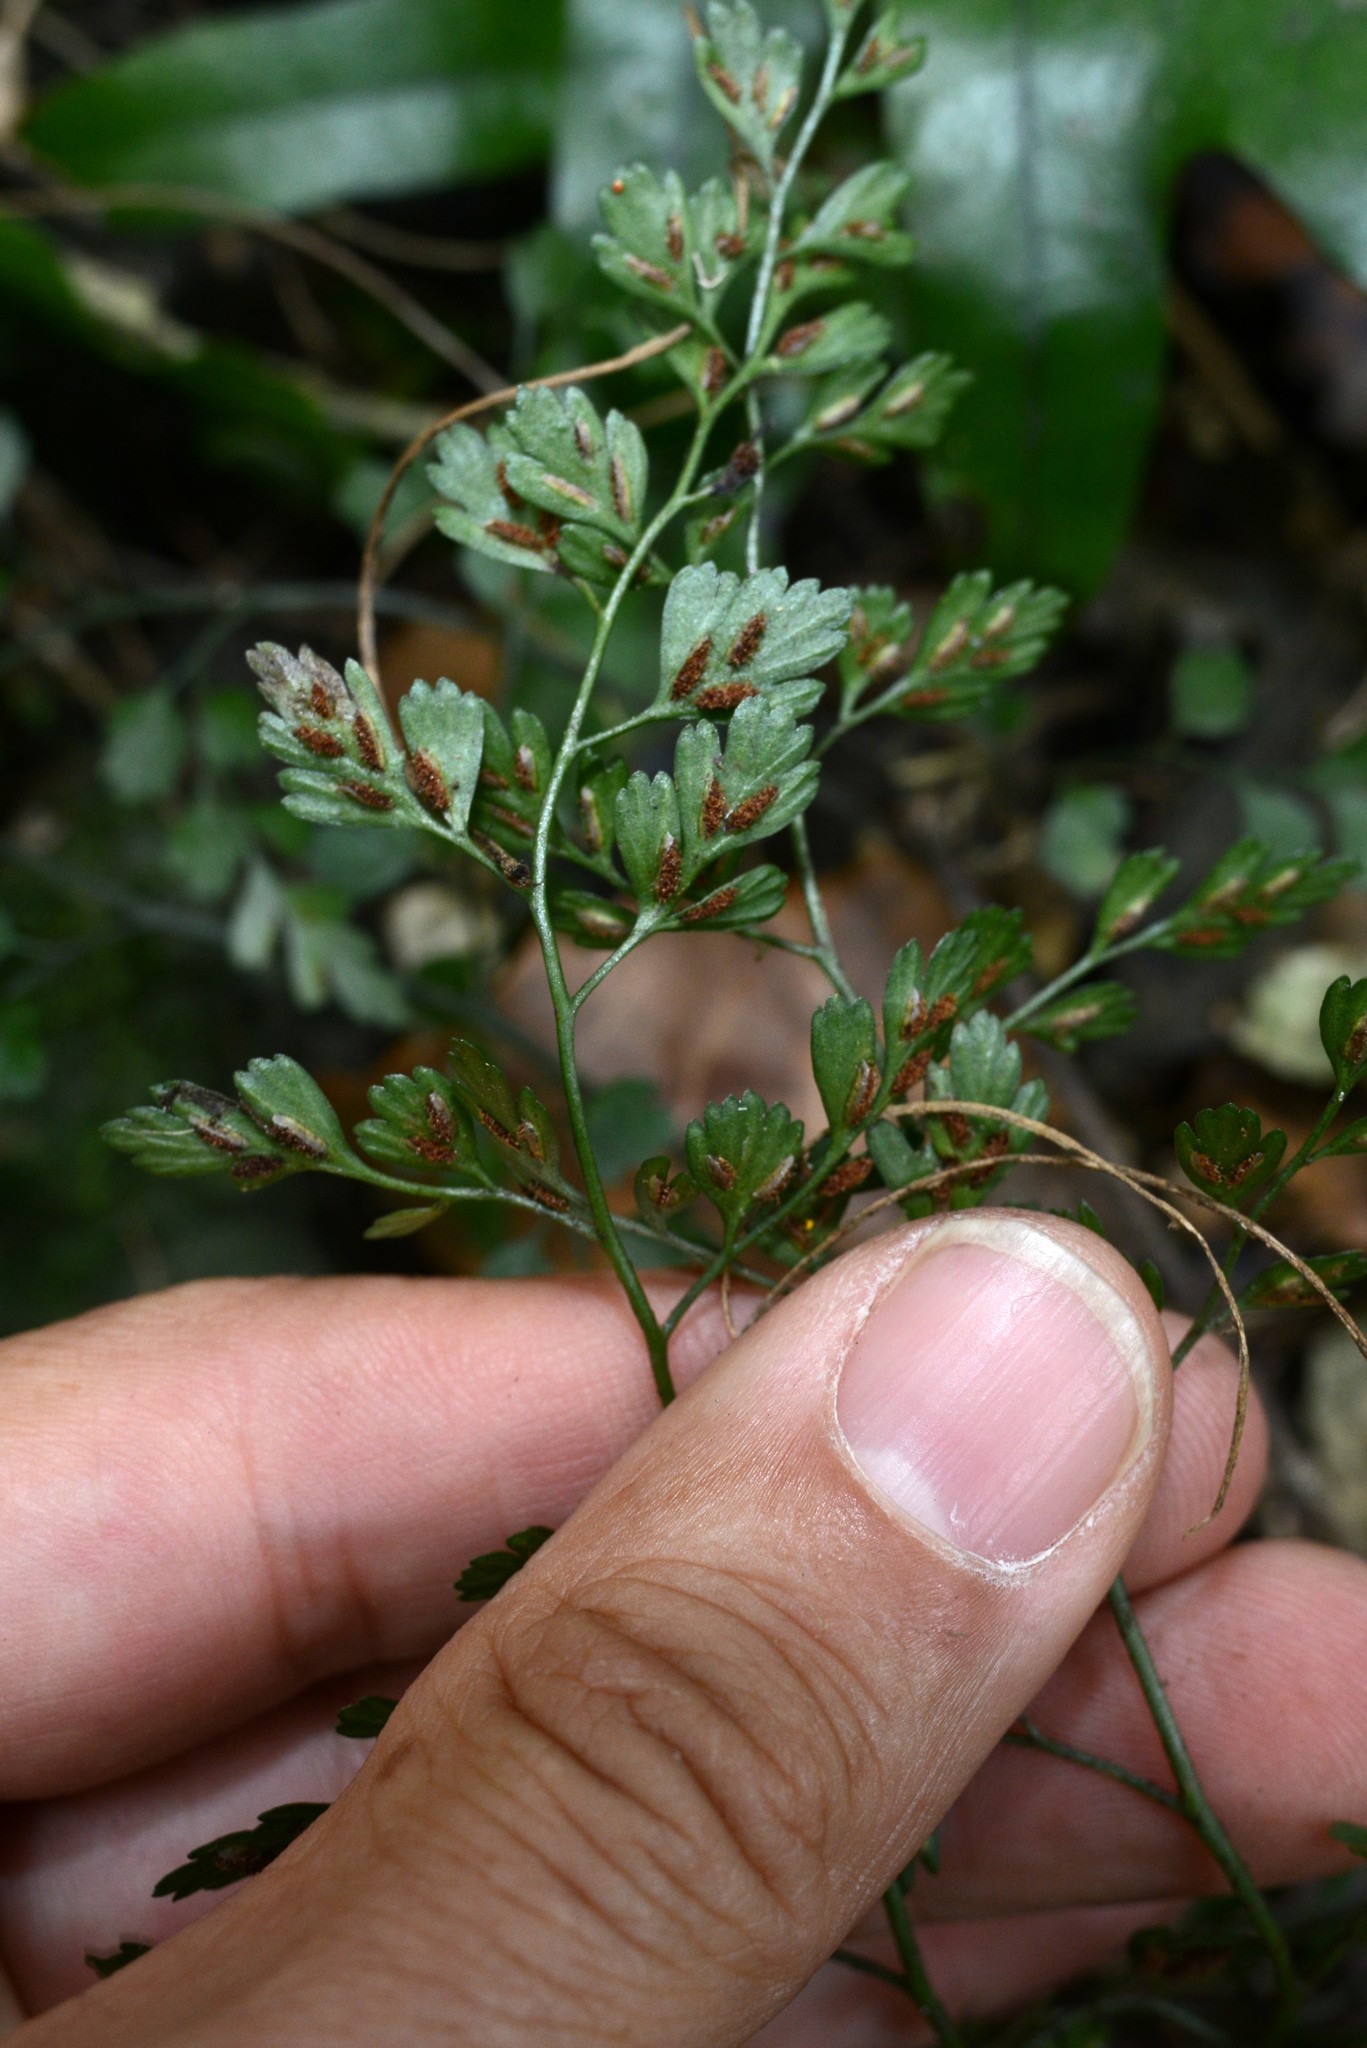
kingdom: Plantae
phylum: Tracheophyta
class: Polypodiopsida
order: Polypodiales
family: Aspleniaceae
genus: Asplenium
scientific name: Asplenium hookerianum
